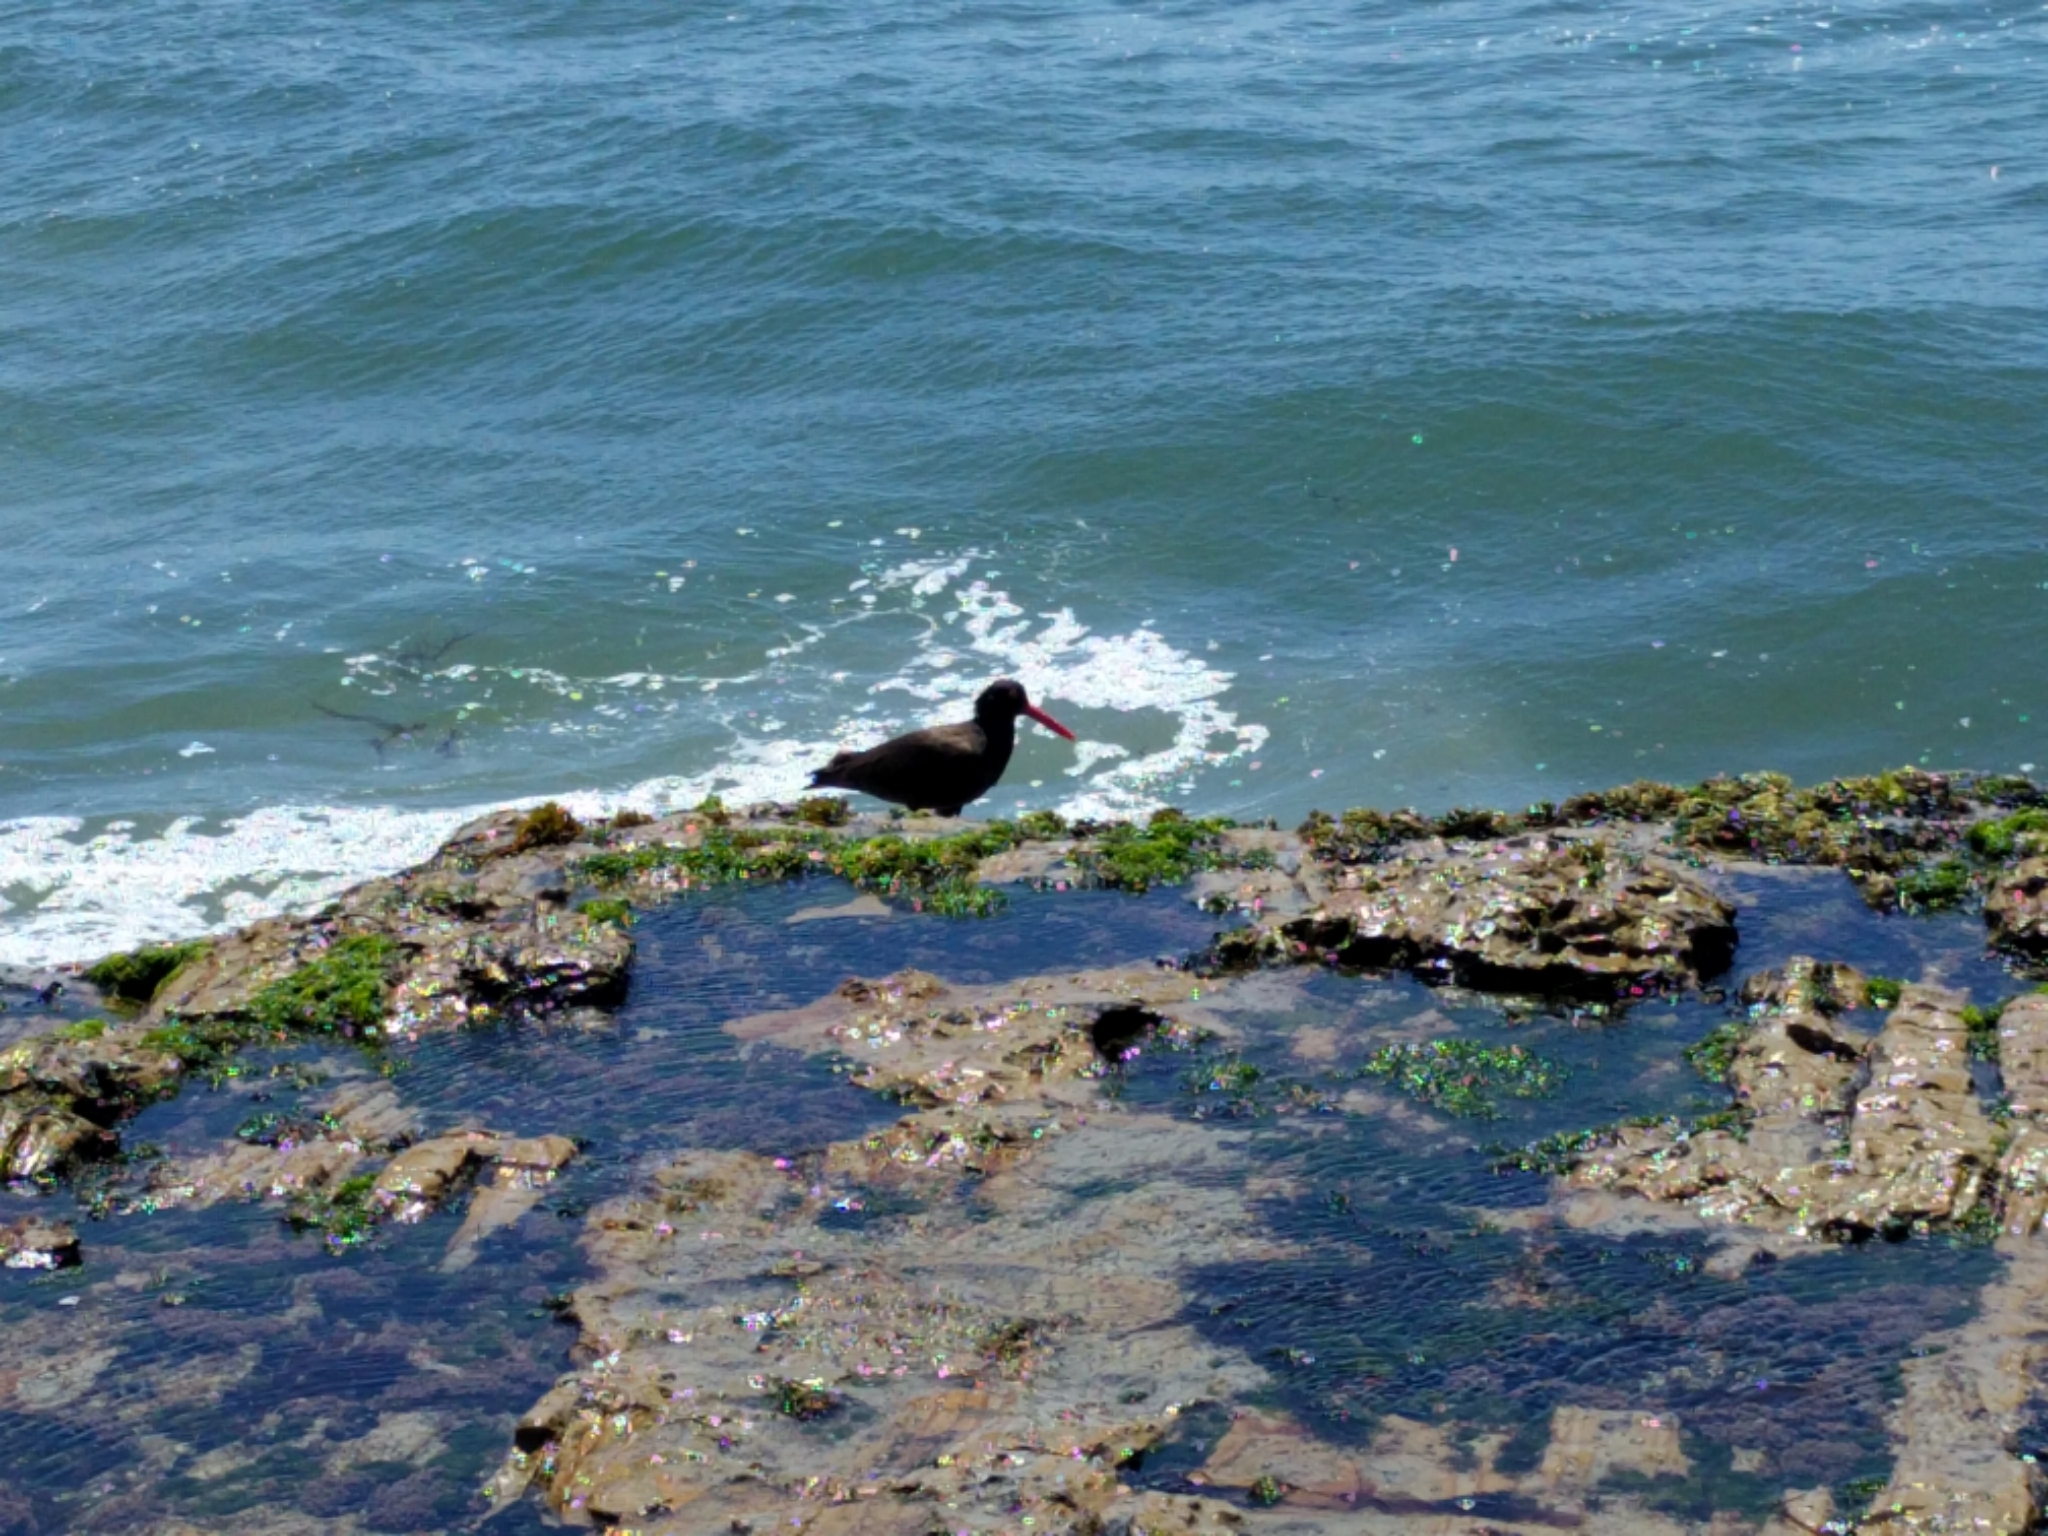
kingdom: Animalia
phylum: Chordata
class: Aves
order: Charadriiformes
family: Haematopodidae
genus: Haematopus
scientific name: Haematopus bachmani
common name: Black oystercatcher
